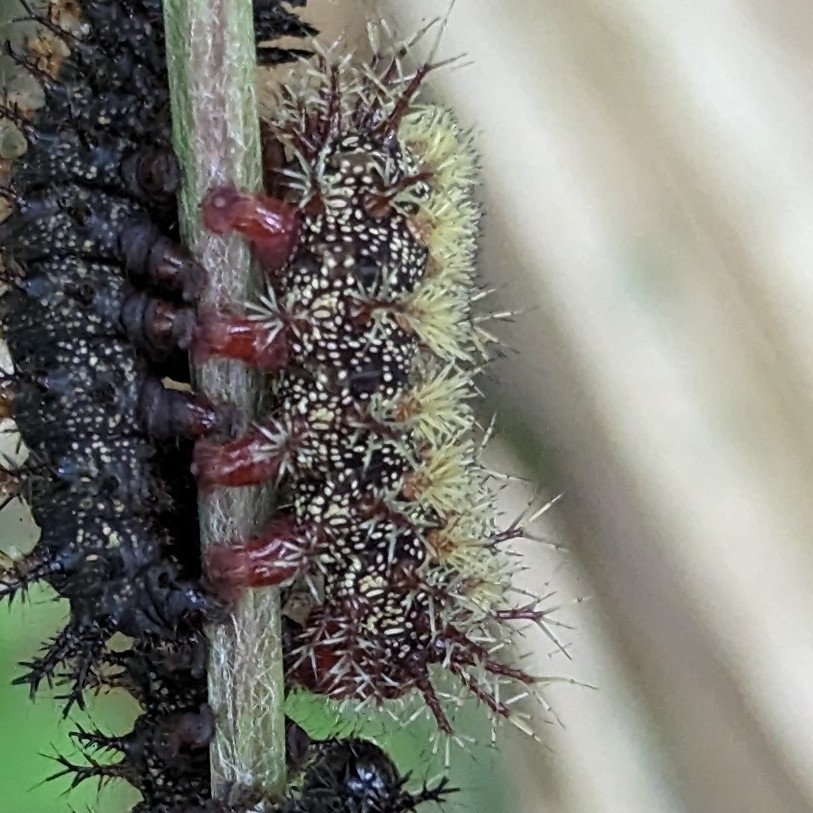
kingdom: Animalia
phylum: Arthropoda
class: Insecta
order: Lepidoptera
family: Saturniidae
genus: Hemileuca
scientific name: Hemileuca maia
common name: Eastern buckmoth
